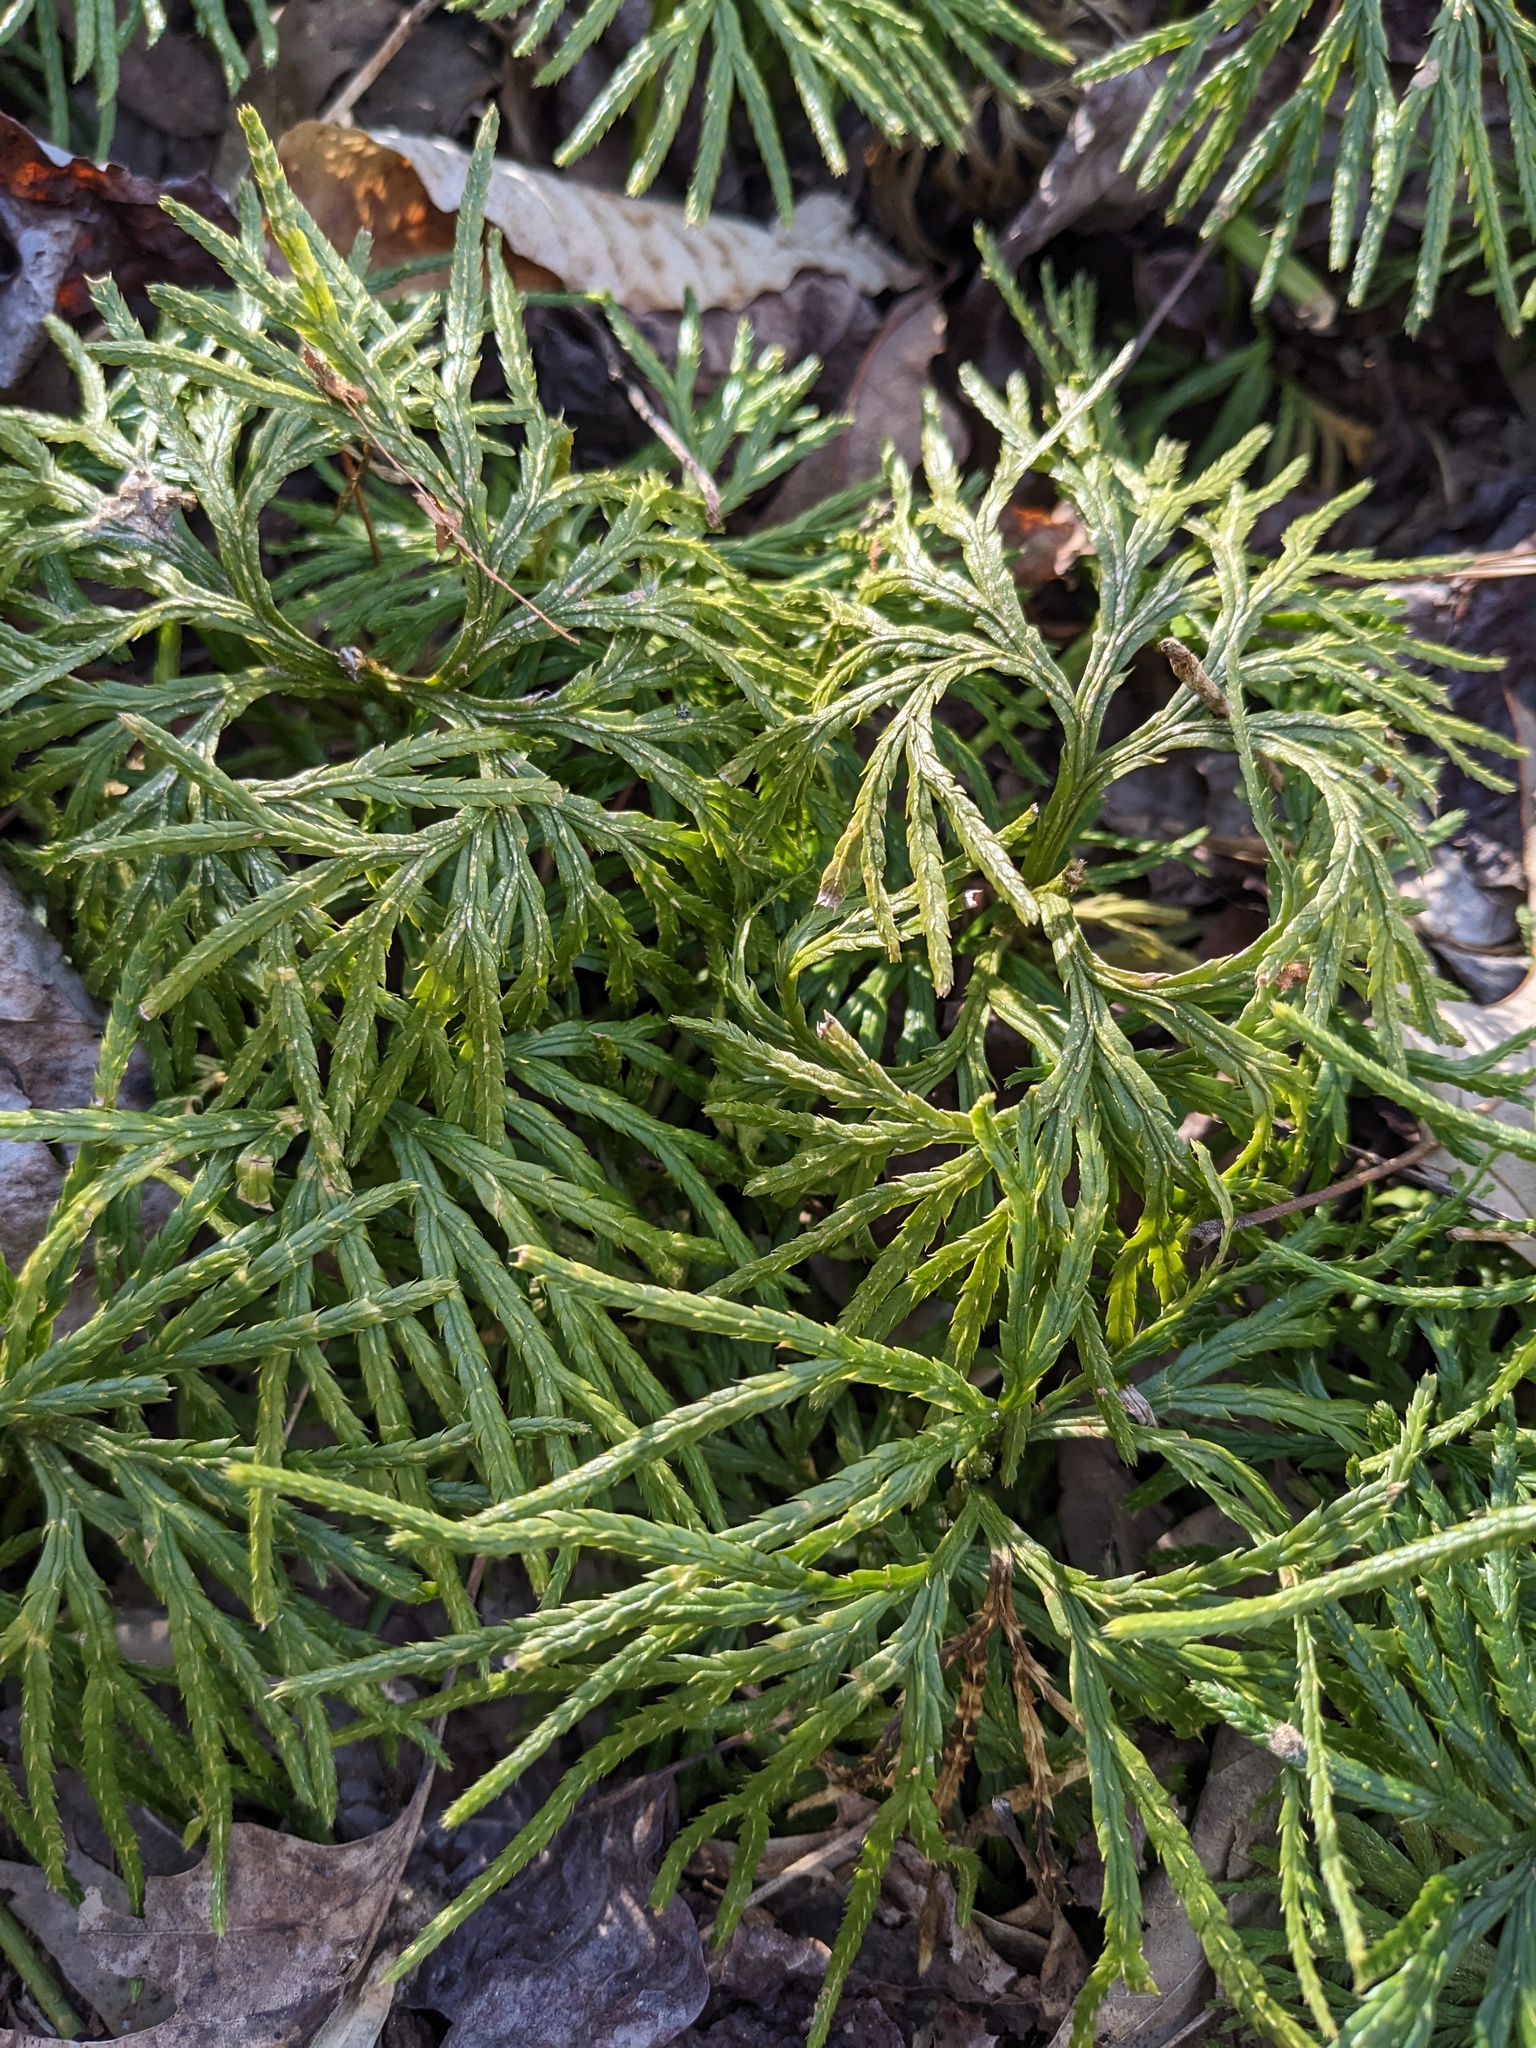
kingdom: Plantae
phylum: Tracheophyta
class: Lycopodiopsida
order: Lycopodiales
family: Lycopodiaceae
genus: Diphasiastrum
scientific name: Diphasiastrum digitatum
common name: Southern running-pine
